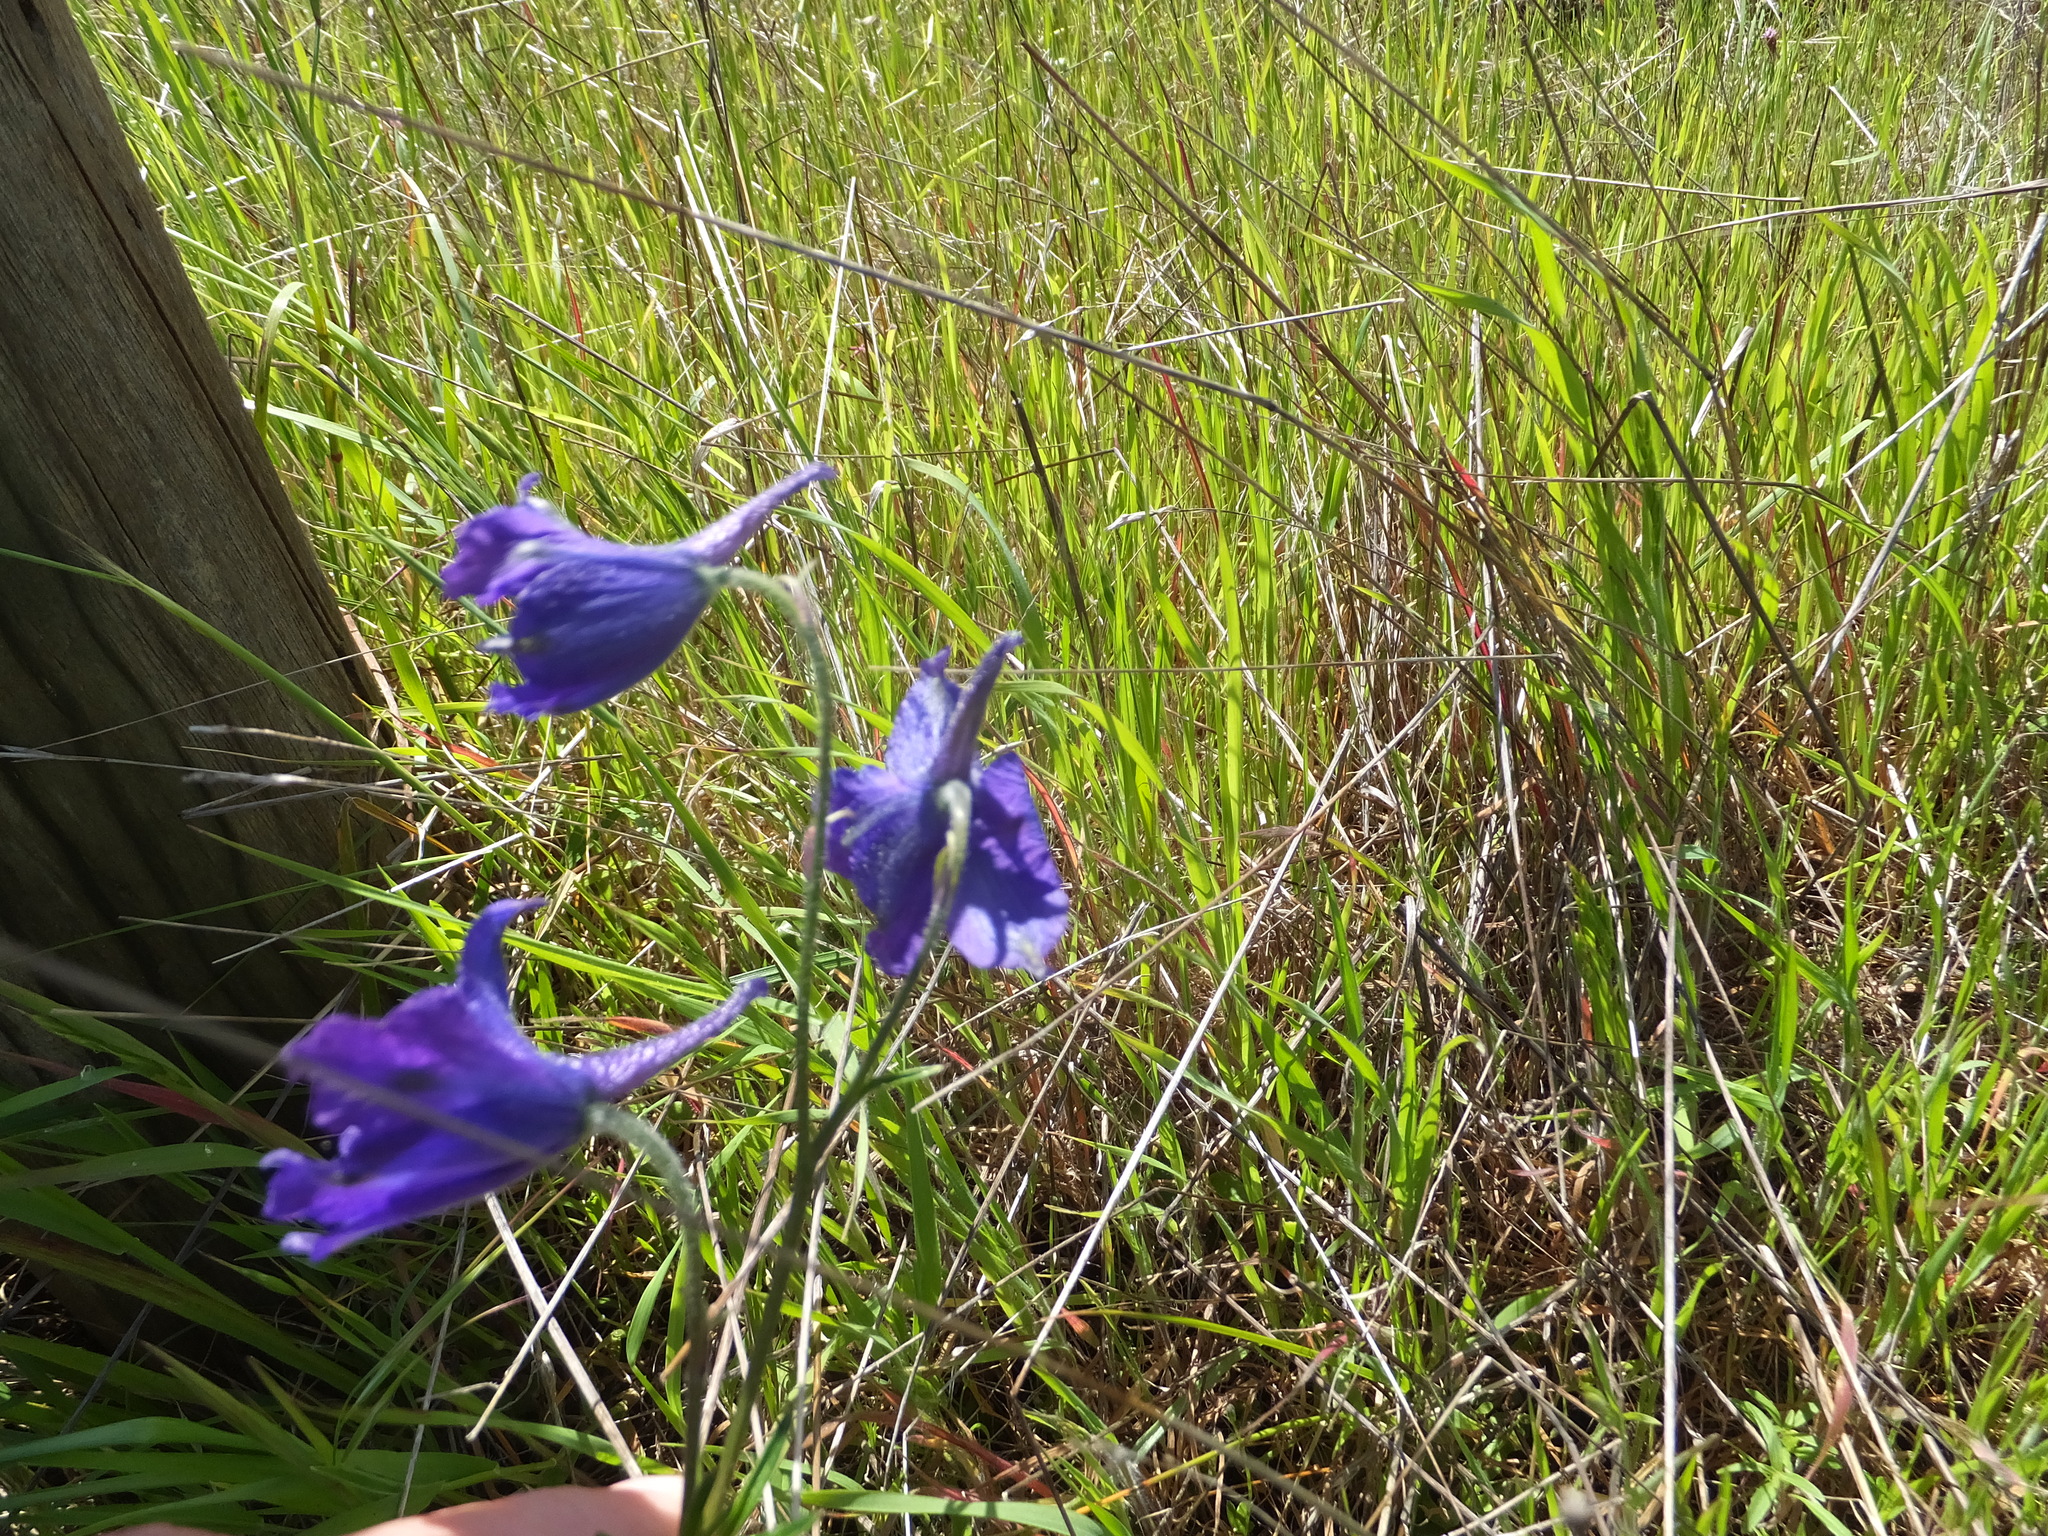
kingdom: Plantae
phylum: Tracheophyta
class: Magnoliopsida
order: Ranunculales
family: Ranunculaceae
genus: Delphinium
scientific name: Delphinium variegatum
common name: Royal larkspur
